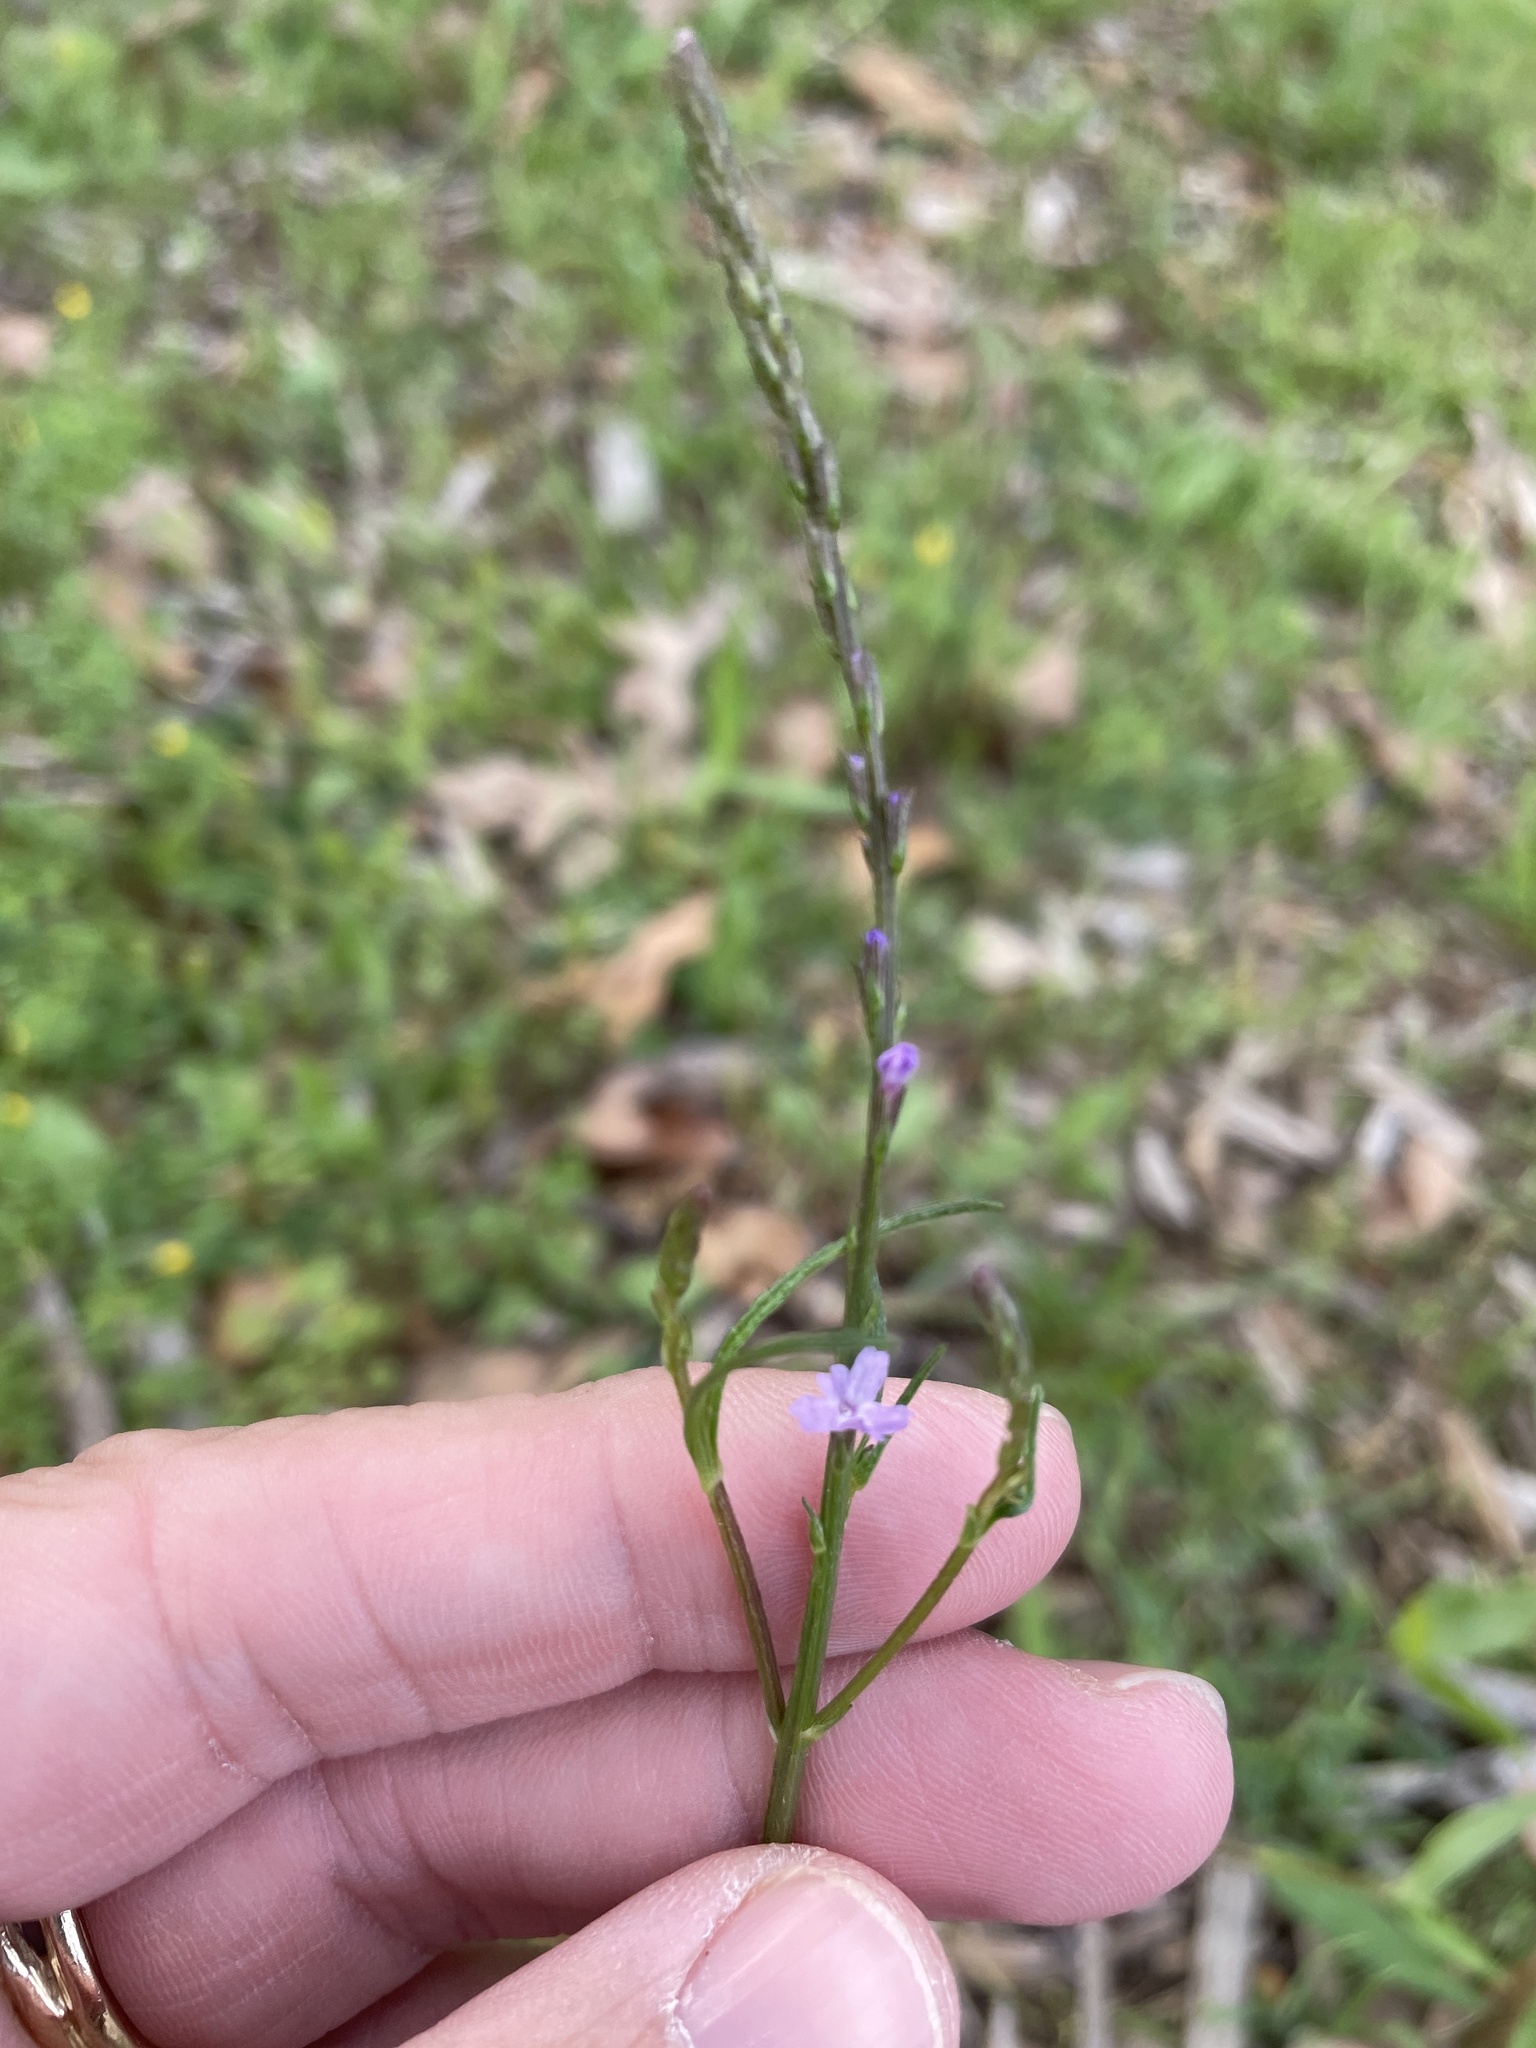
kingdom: Plantae
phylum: Tracheophyta
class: Magnoliopsida
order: Lamiales
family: Verbenaceae
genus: Verbena
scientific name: Verbena halei
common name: Texas vervain
